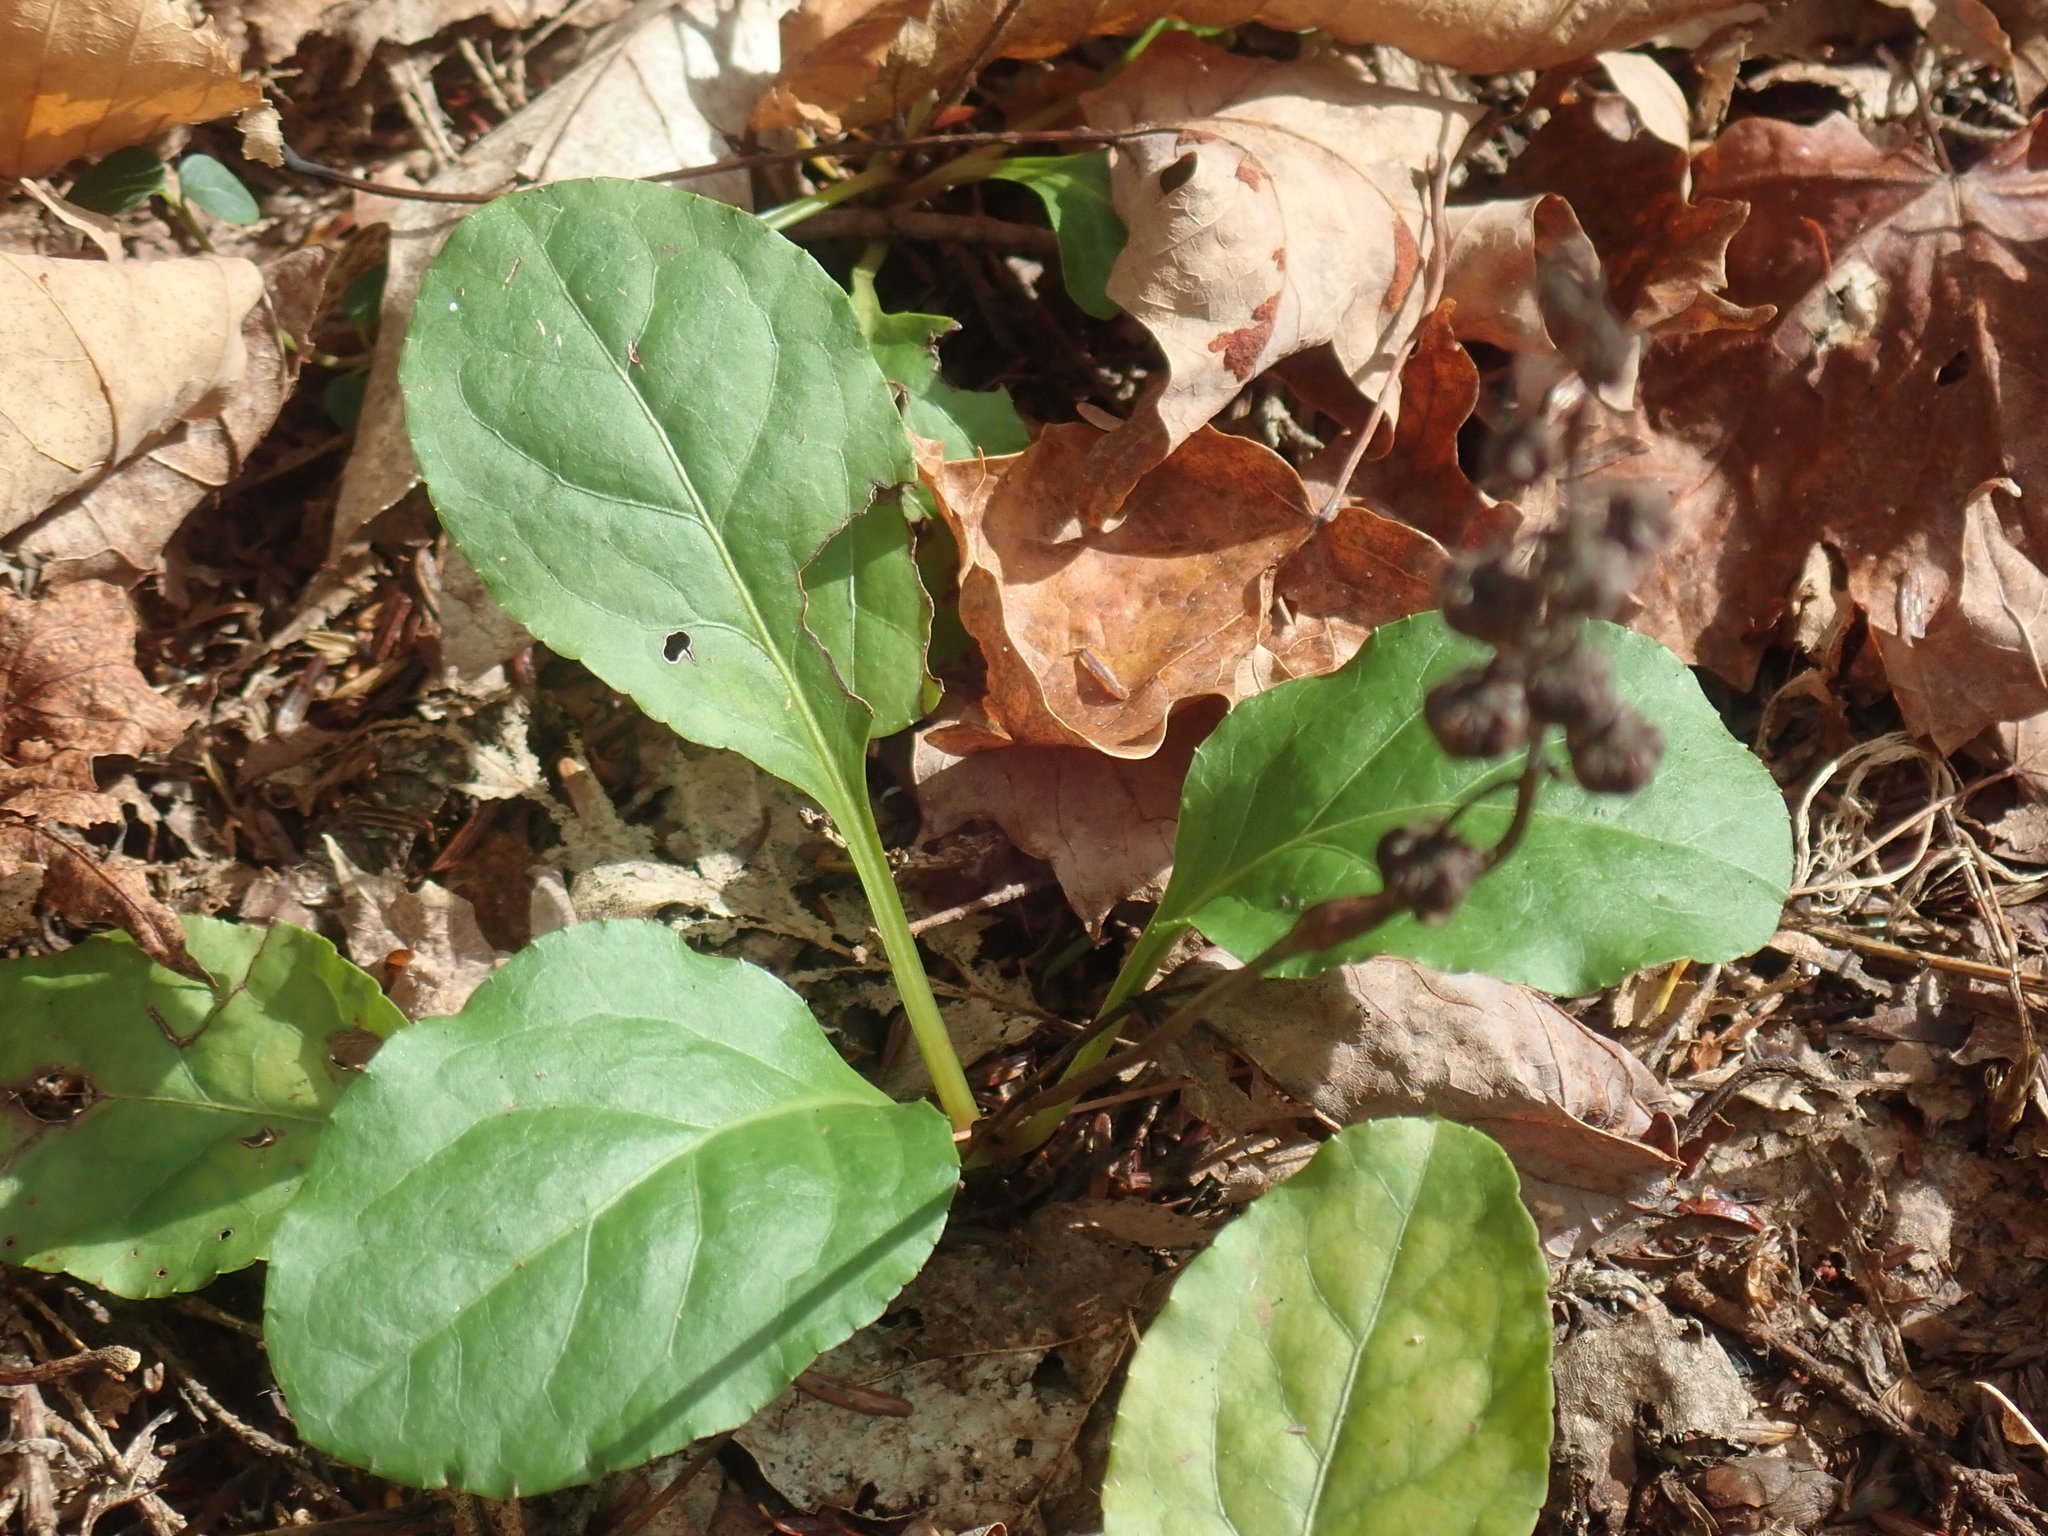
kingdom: Plantae
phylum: Tracheophyta
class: Magnoliopsida
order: Ericales
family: Ericaceae
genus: Pyrola
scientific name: Pyrola elliptica
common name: Shinleaf
